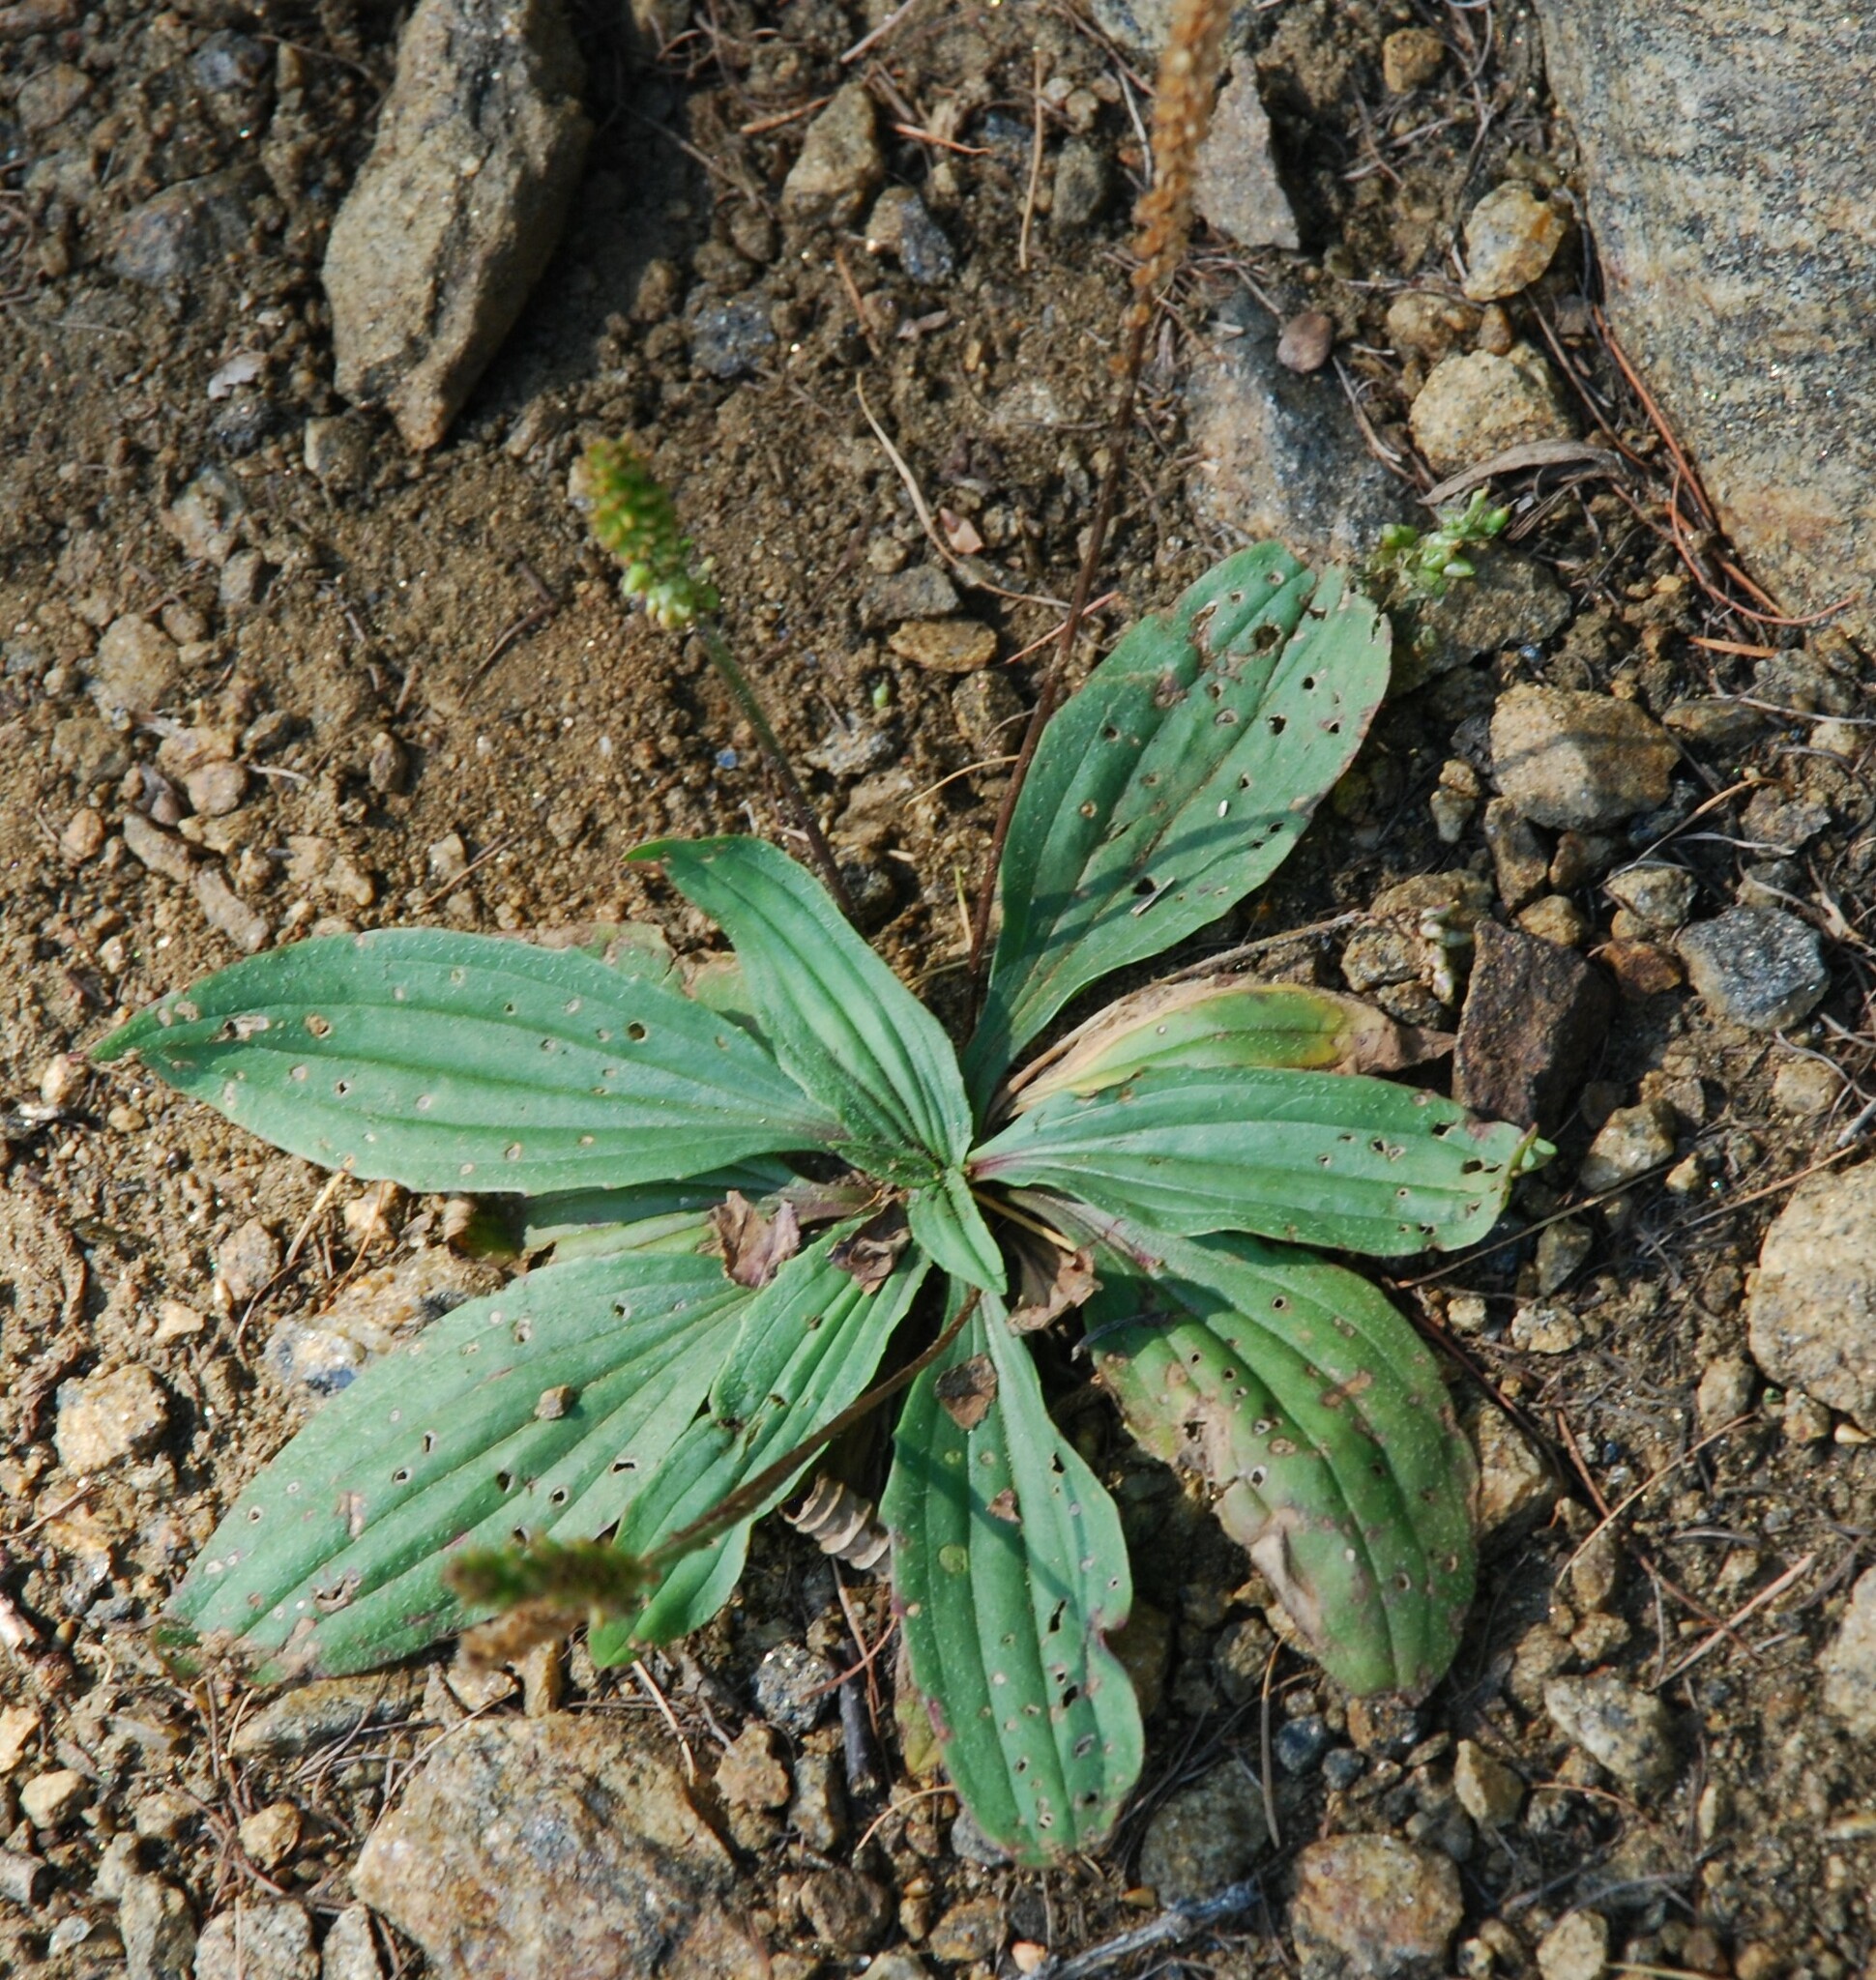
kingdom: Plantae
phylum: Tracheophyta
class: Magnoliopsida
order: Lamiales
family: Plantaginaceae
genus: Plantago
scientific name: Plantago depressa
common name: Depressed plantain
